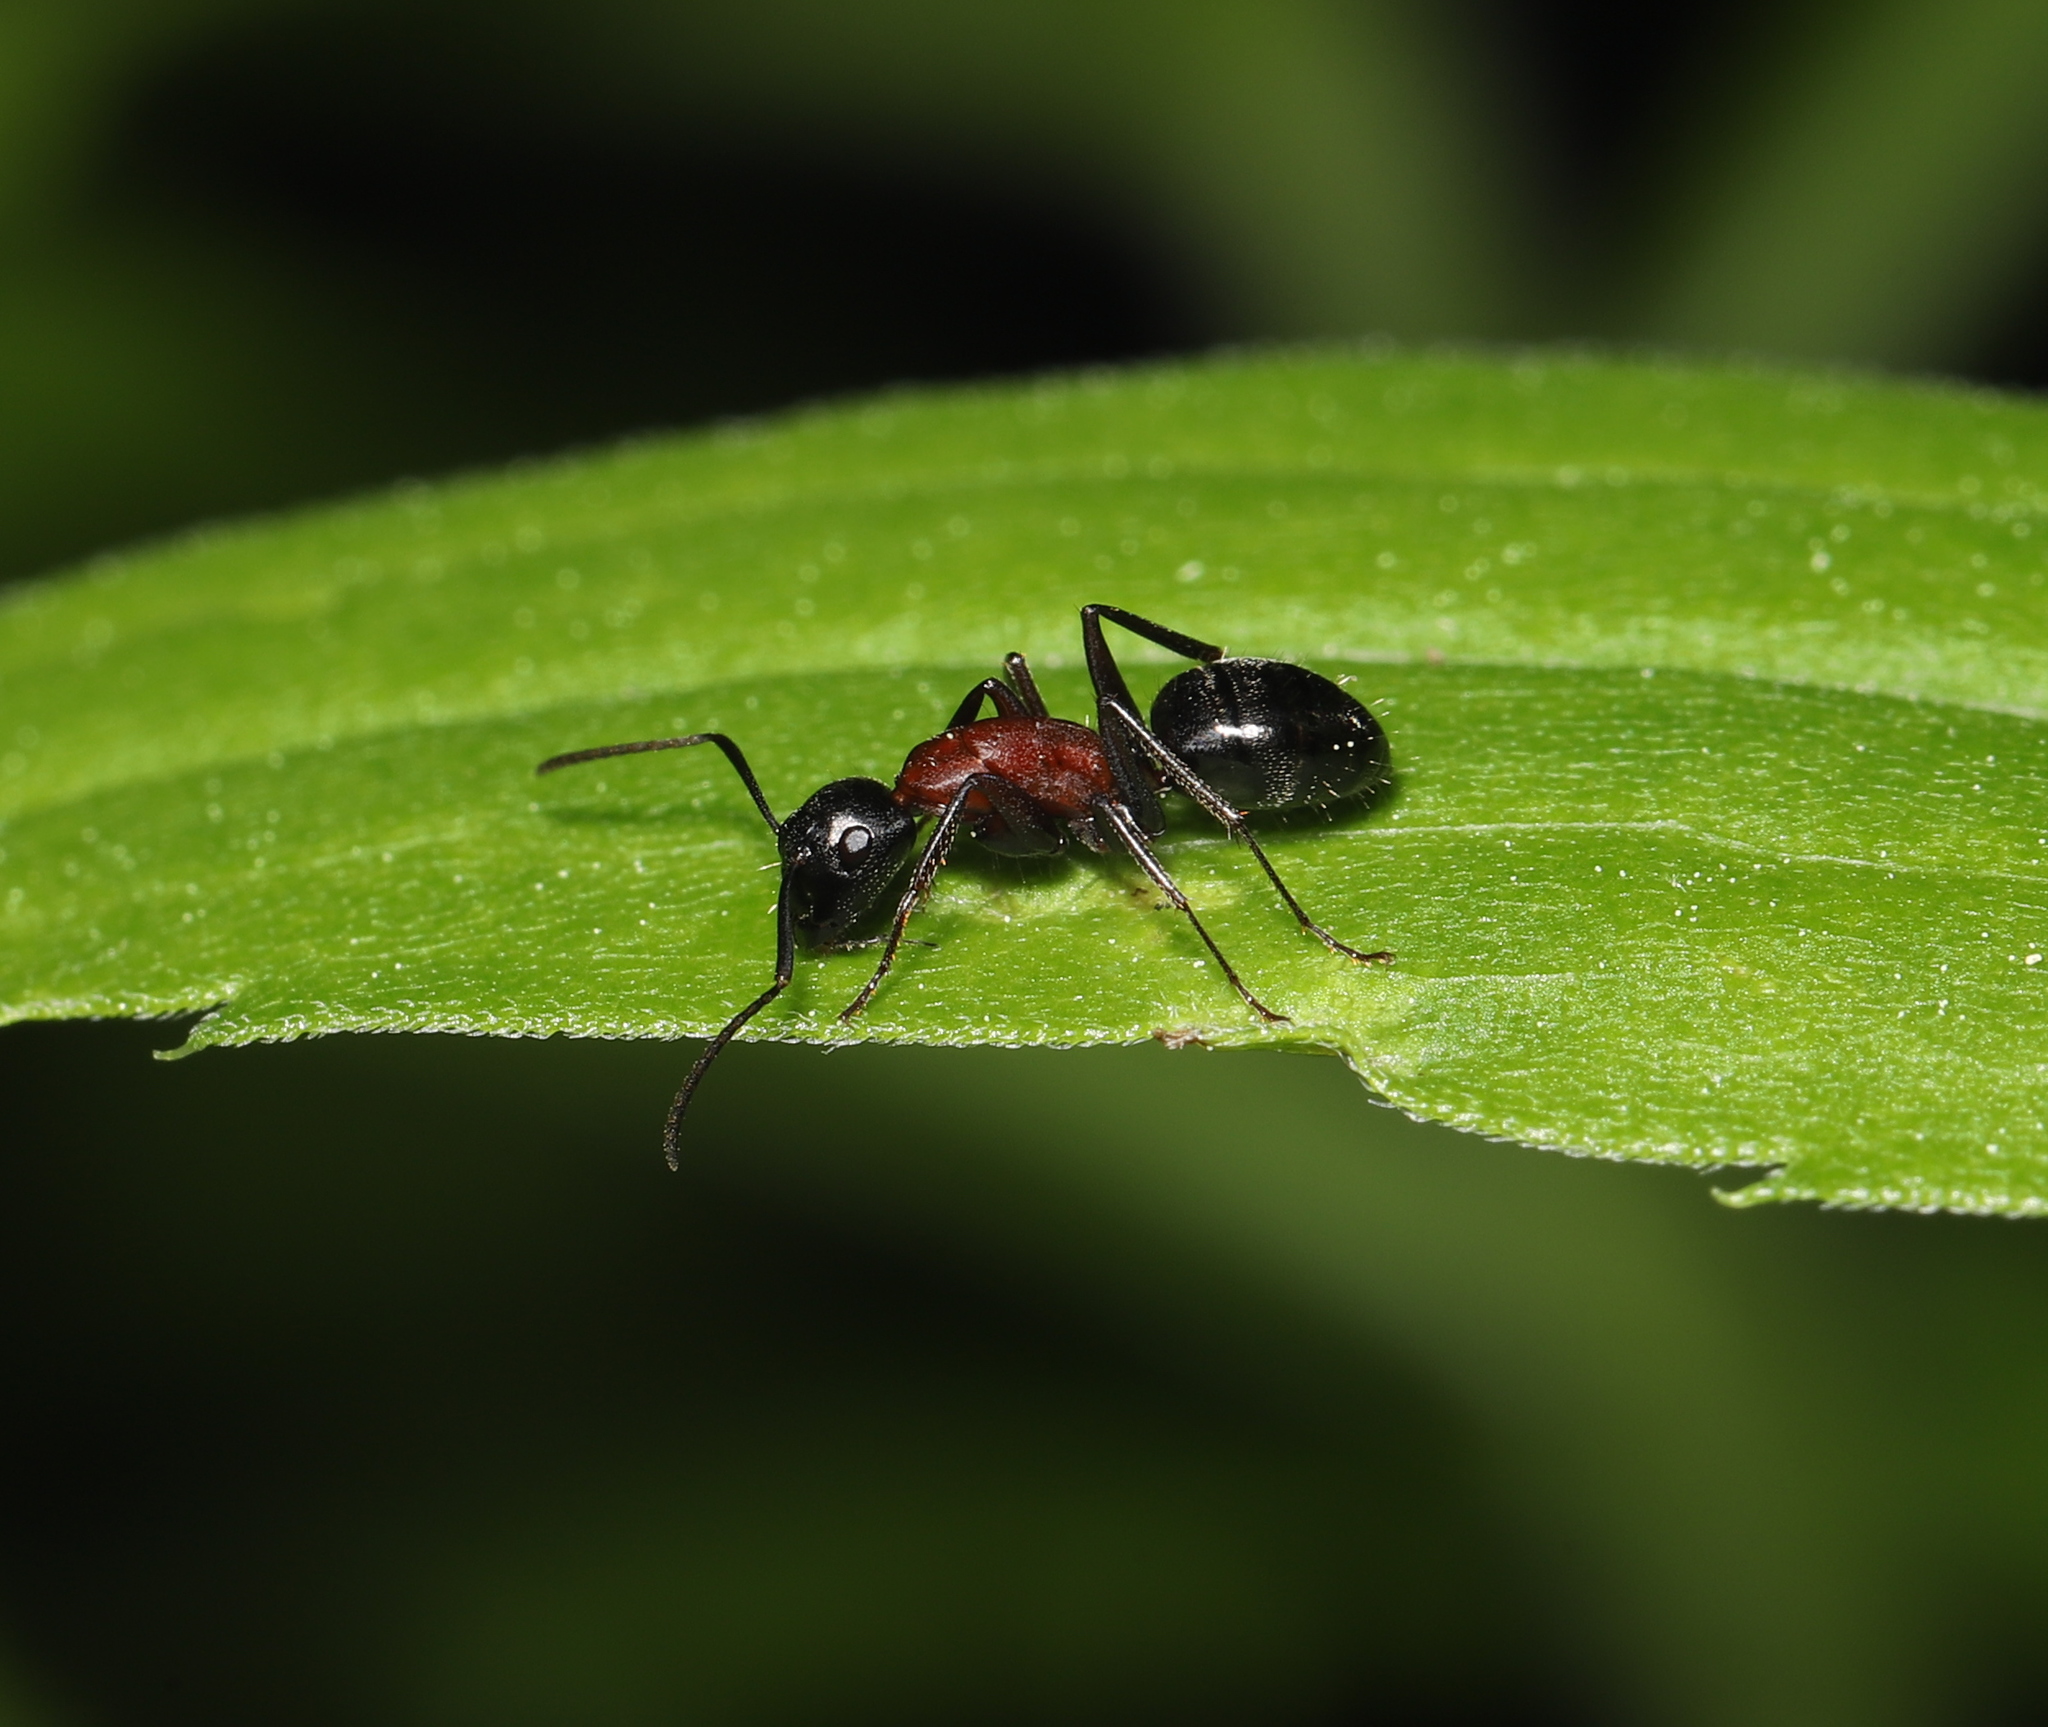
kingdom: Animalia
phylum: Arthropoda
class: Insecta
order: Hymenoptera
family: Formicidae
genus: Camponotus
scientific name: Camponotus novaeboracensis
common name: New york carpenter ant
